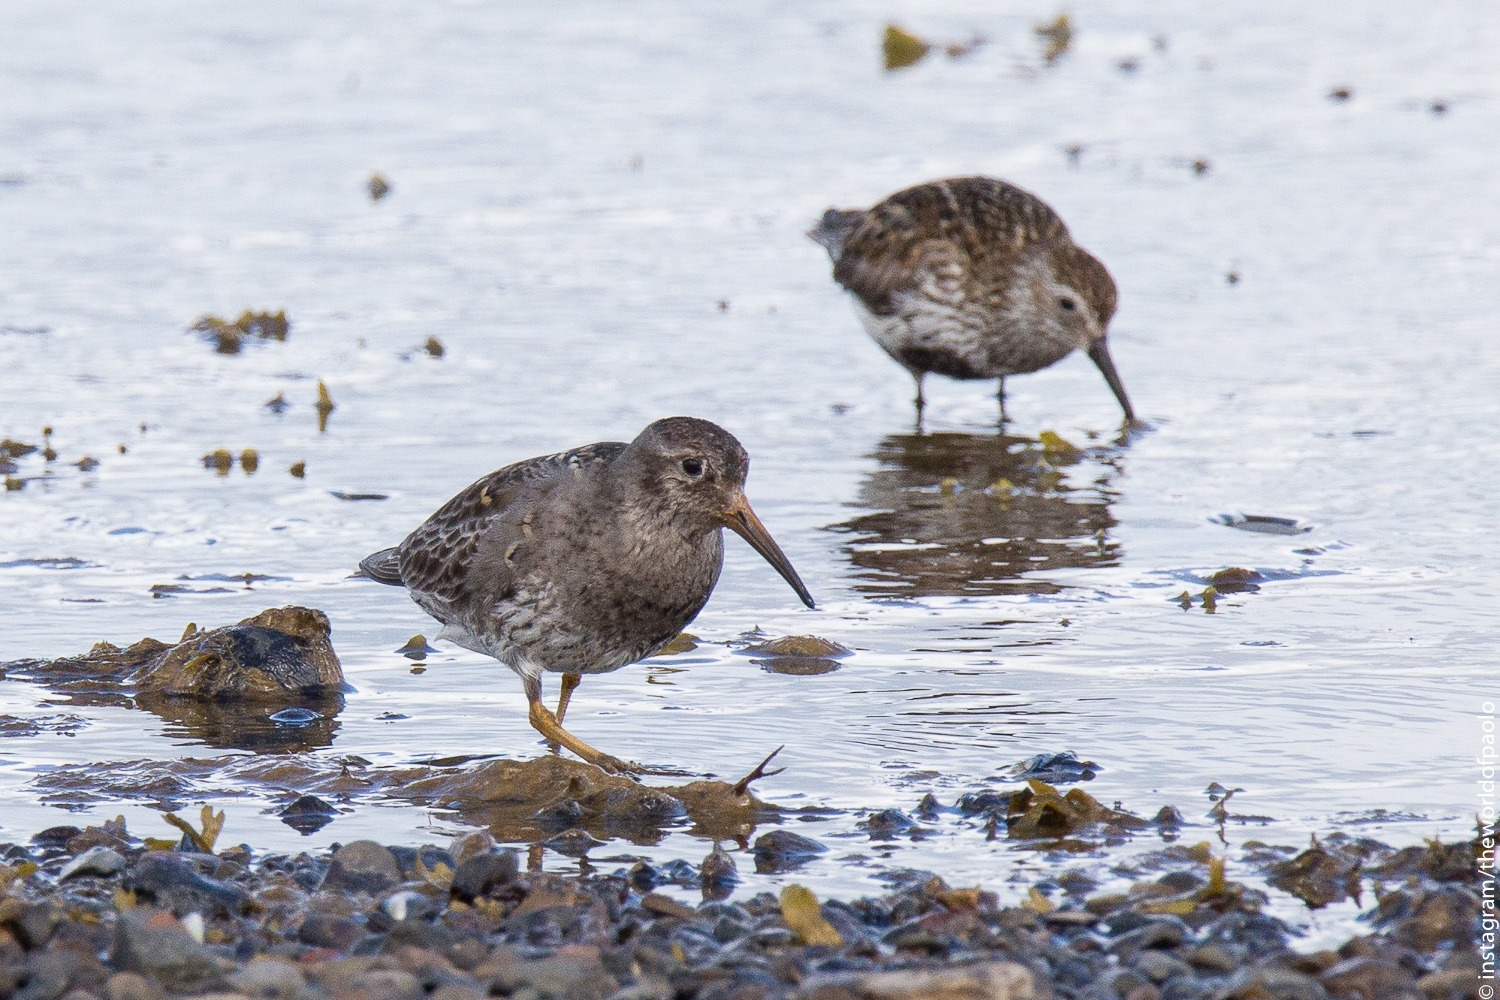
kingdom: Animalia
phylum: Chordata
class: Aves
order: Charadriiformes
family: Scolopacidae
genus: Calidris
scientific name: Calidris maritima
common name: Purple sandpiper
